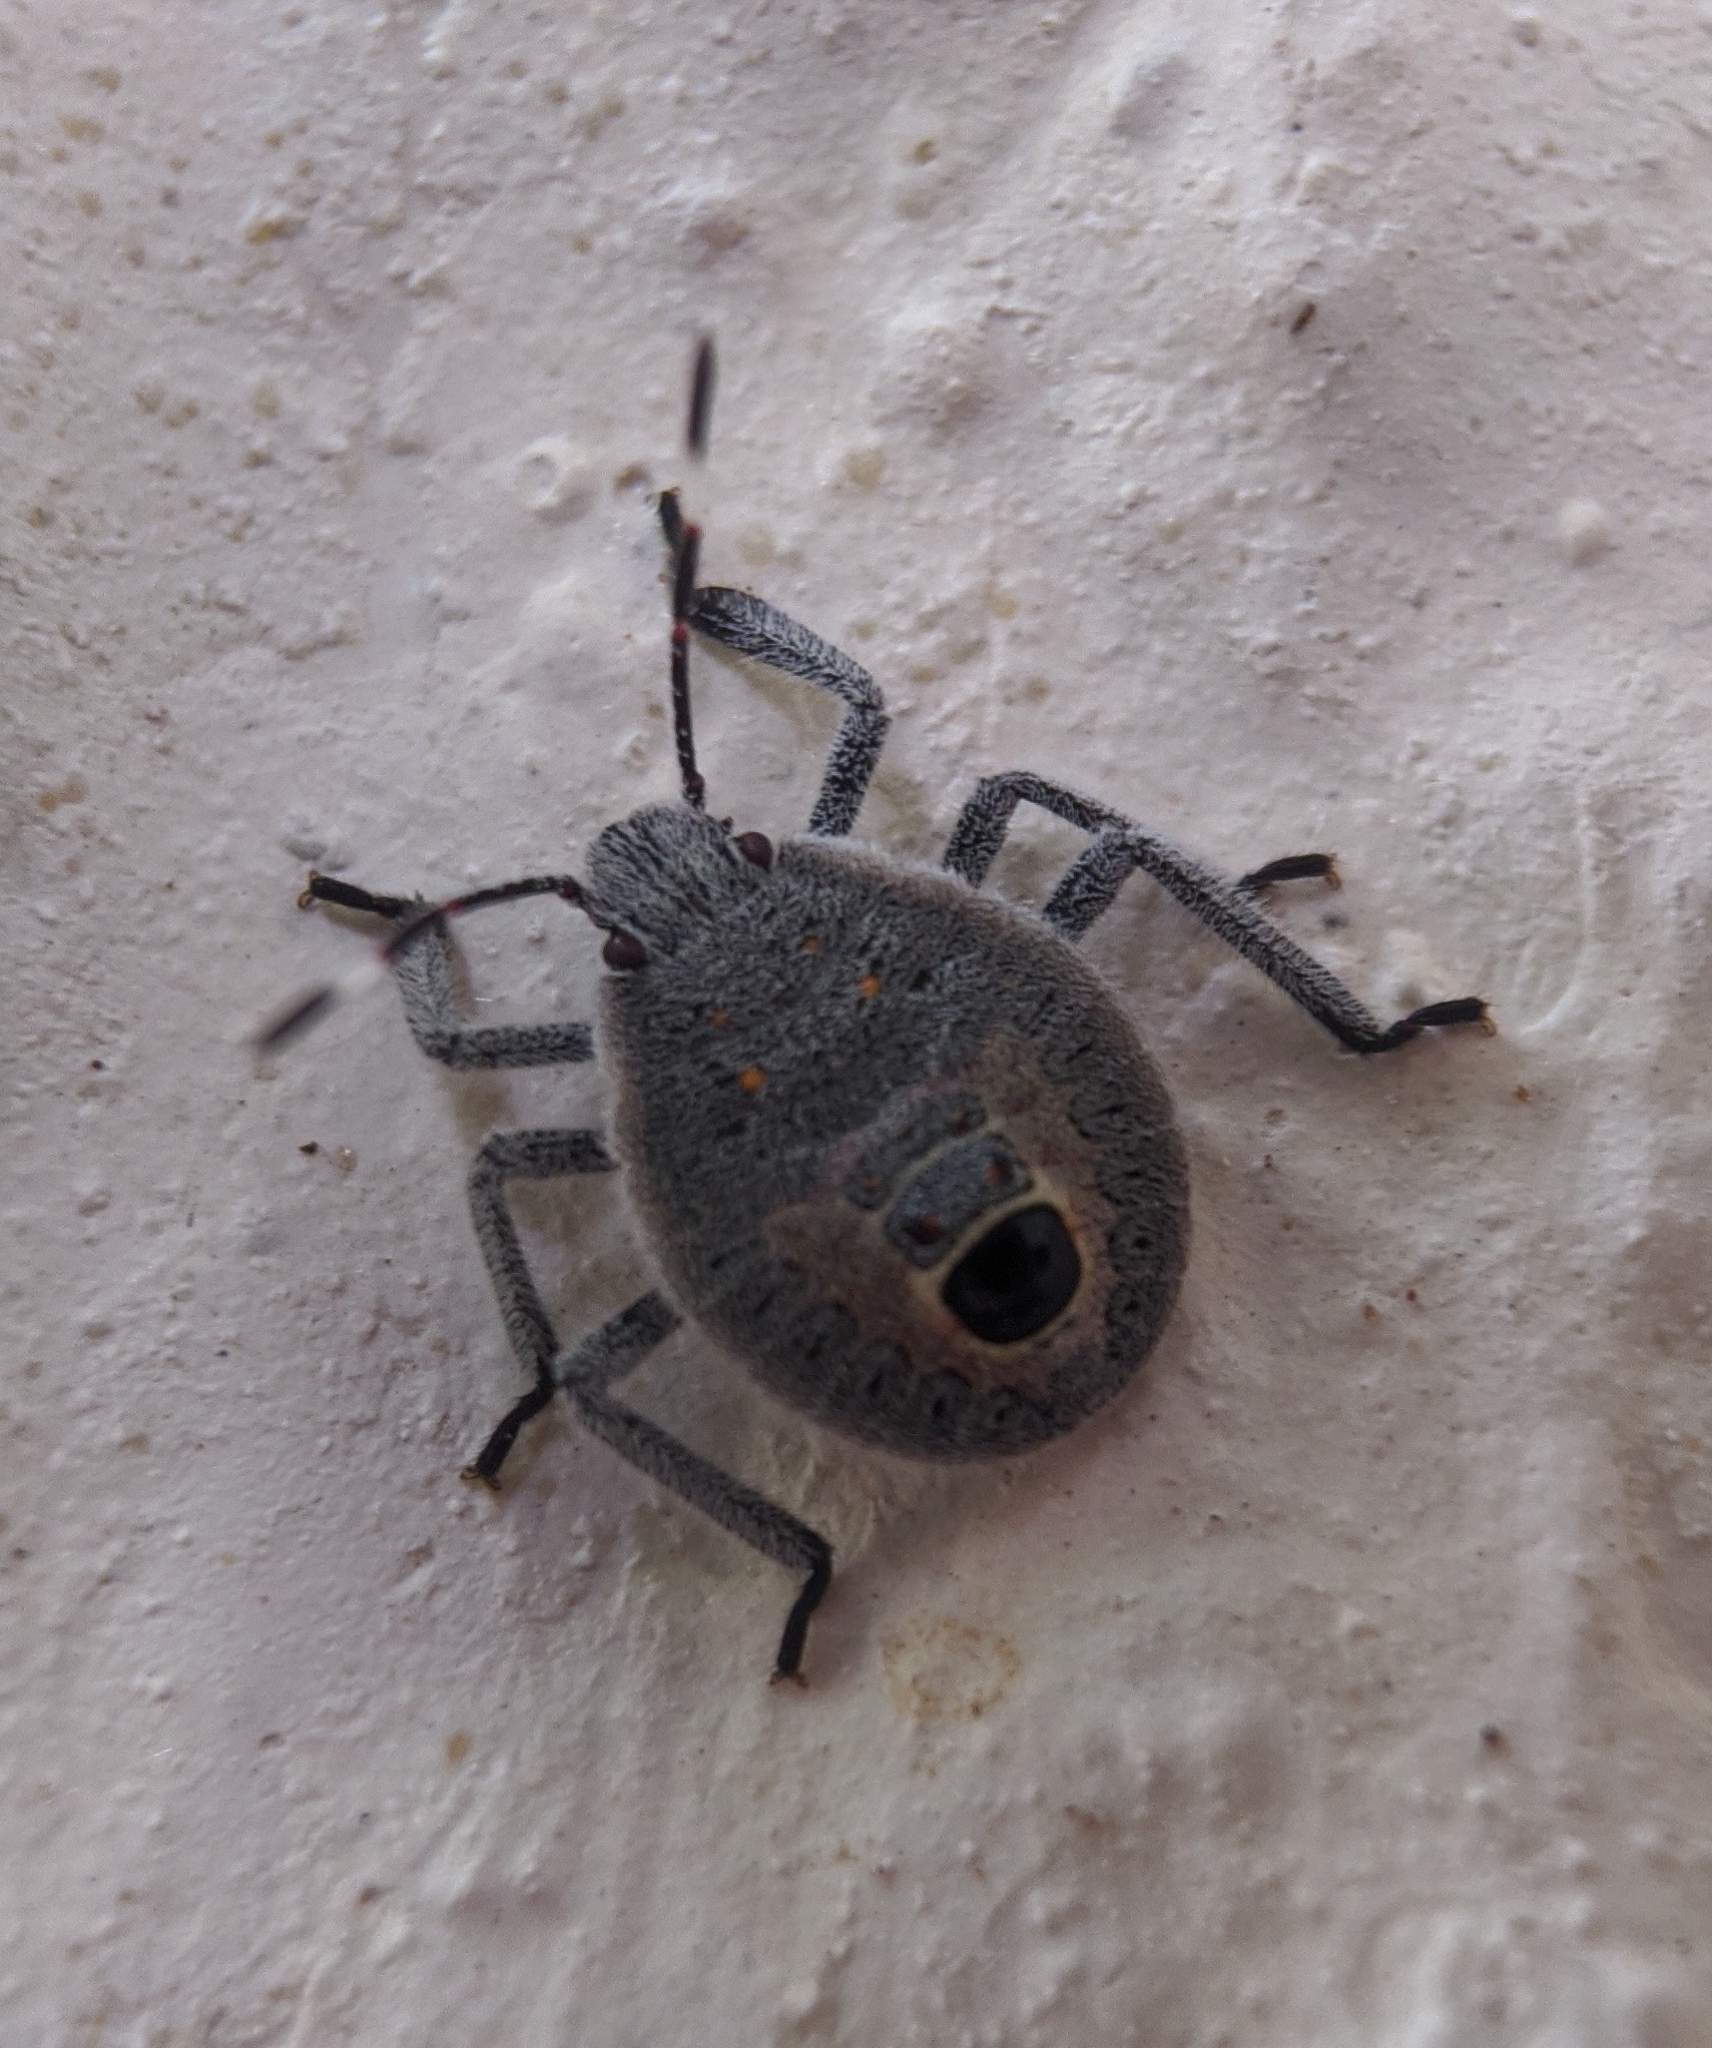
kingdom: Animalia
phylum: Arthropoda
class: Insecta
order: Hemiptera
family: Pentatomidae
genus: Erthesina
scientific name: Erthesina acuminata
